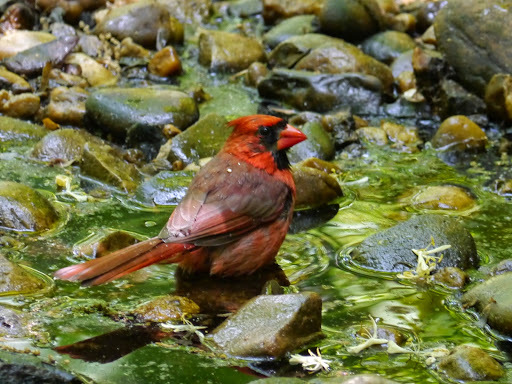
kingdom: Animalia
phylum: Chordata
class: Aves
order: Passeriformes
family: Cardinalidae
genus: Cardinalis
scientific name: Cardinalis cardinalis
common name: Northern cardinal
